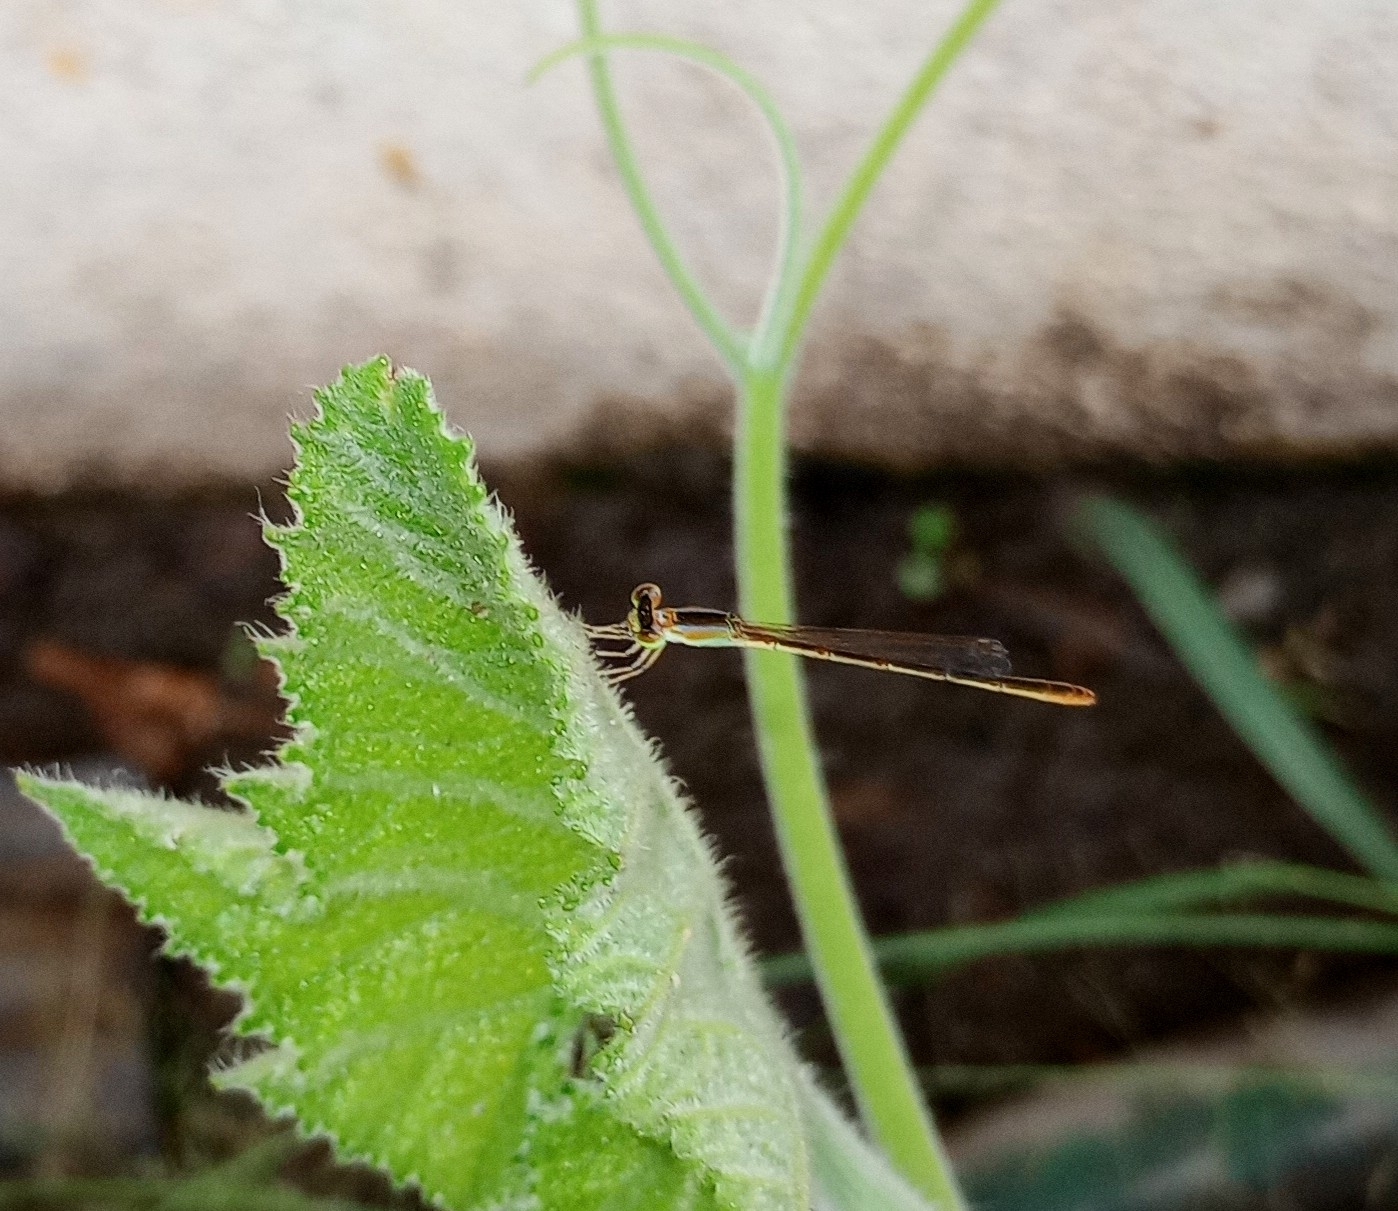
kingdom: Animalia
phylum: Arthropoda
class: Insecta
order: Odonata
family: Coenagrionidae
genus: Agriocnemis
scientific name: Agriocnemis pygmaea
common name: Pygmy wisp
